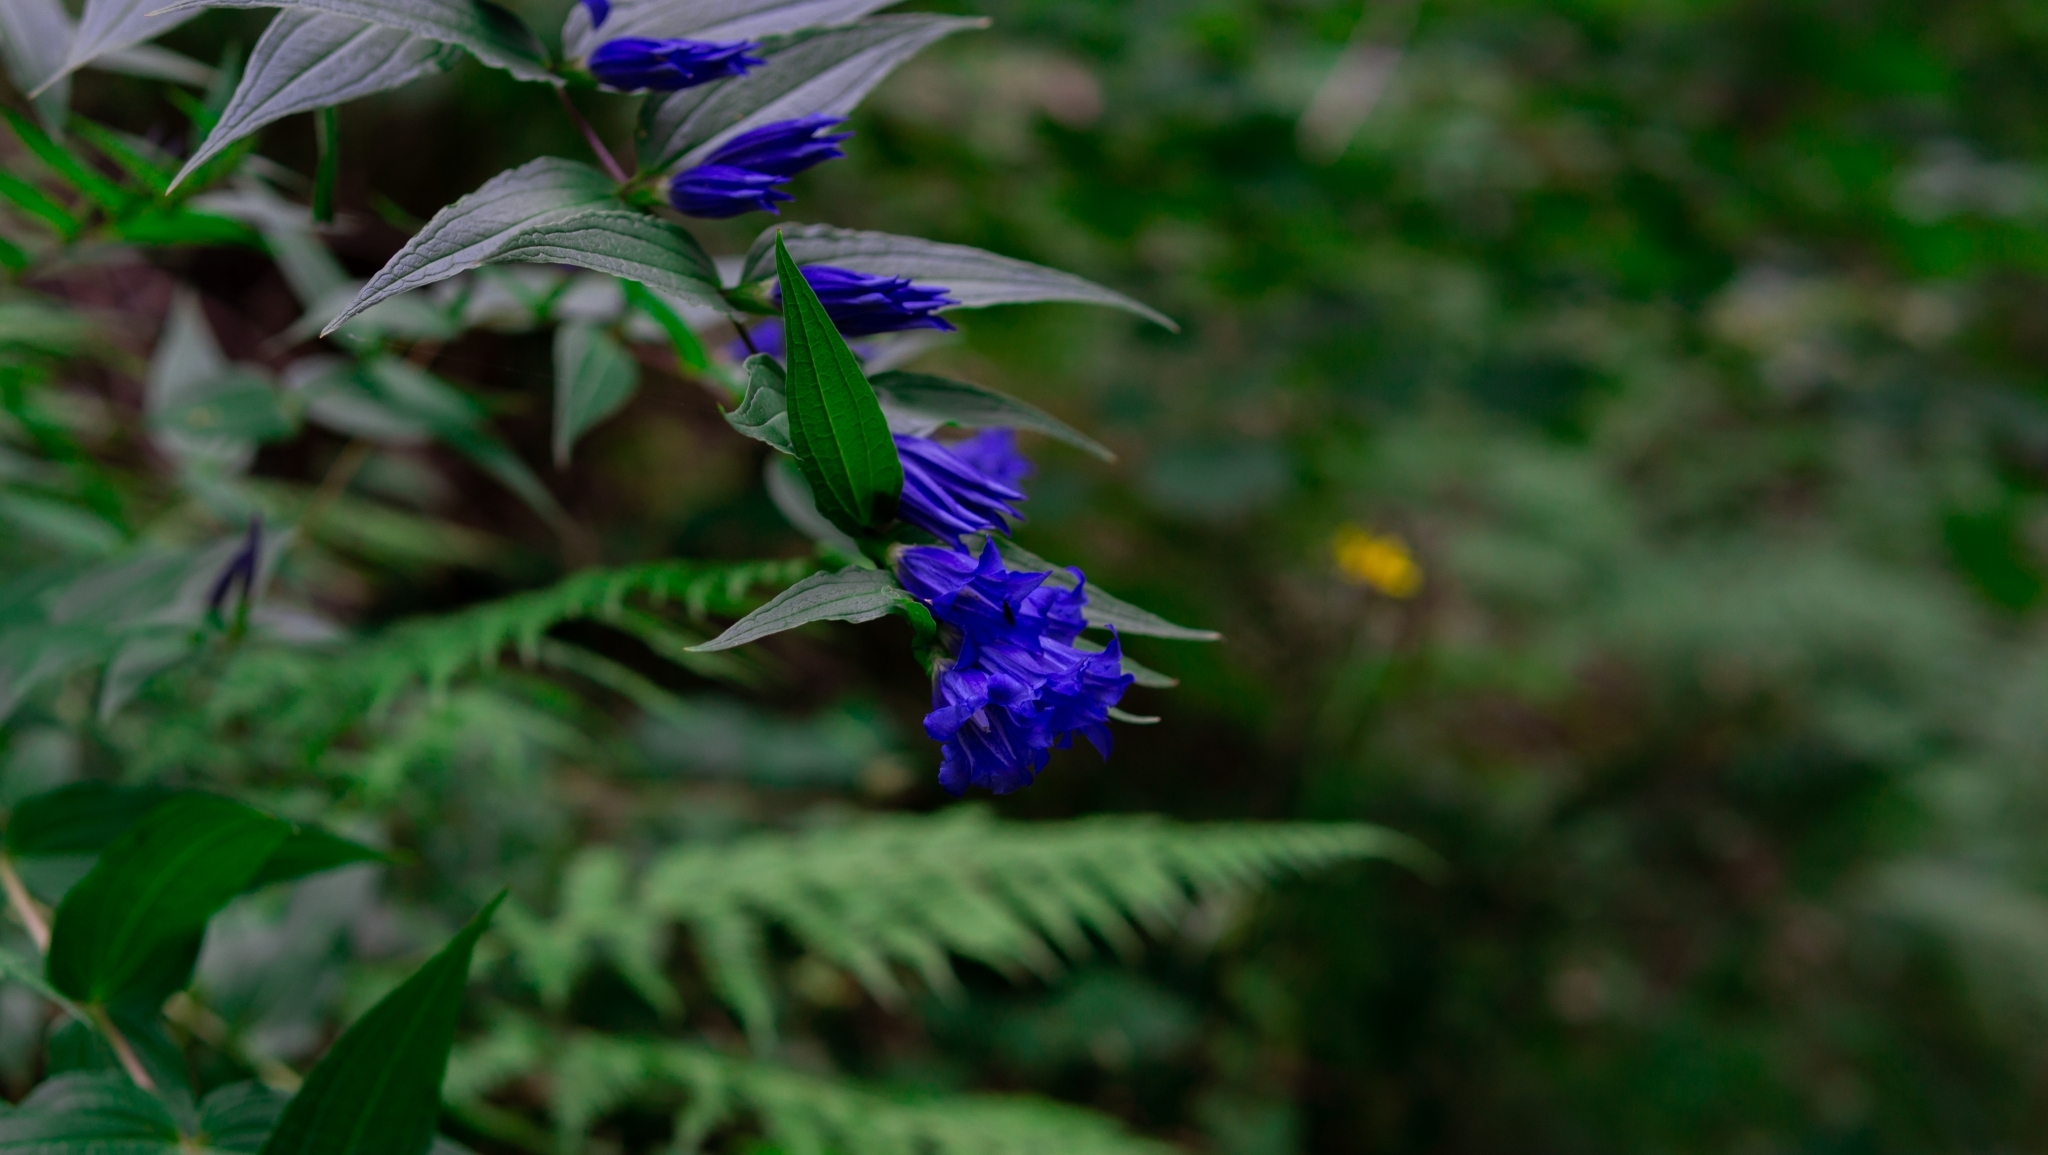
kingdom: Plantae
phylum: Tracheophyta
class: Magnoliopsida
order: Gentianales
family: Gentianaceae
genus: Gentiana
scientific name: Gentiana asclepiadea
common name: Willow gentian
